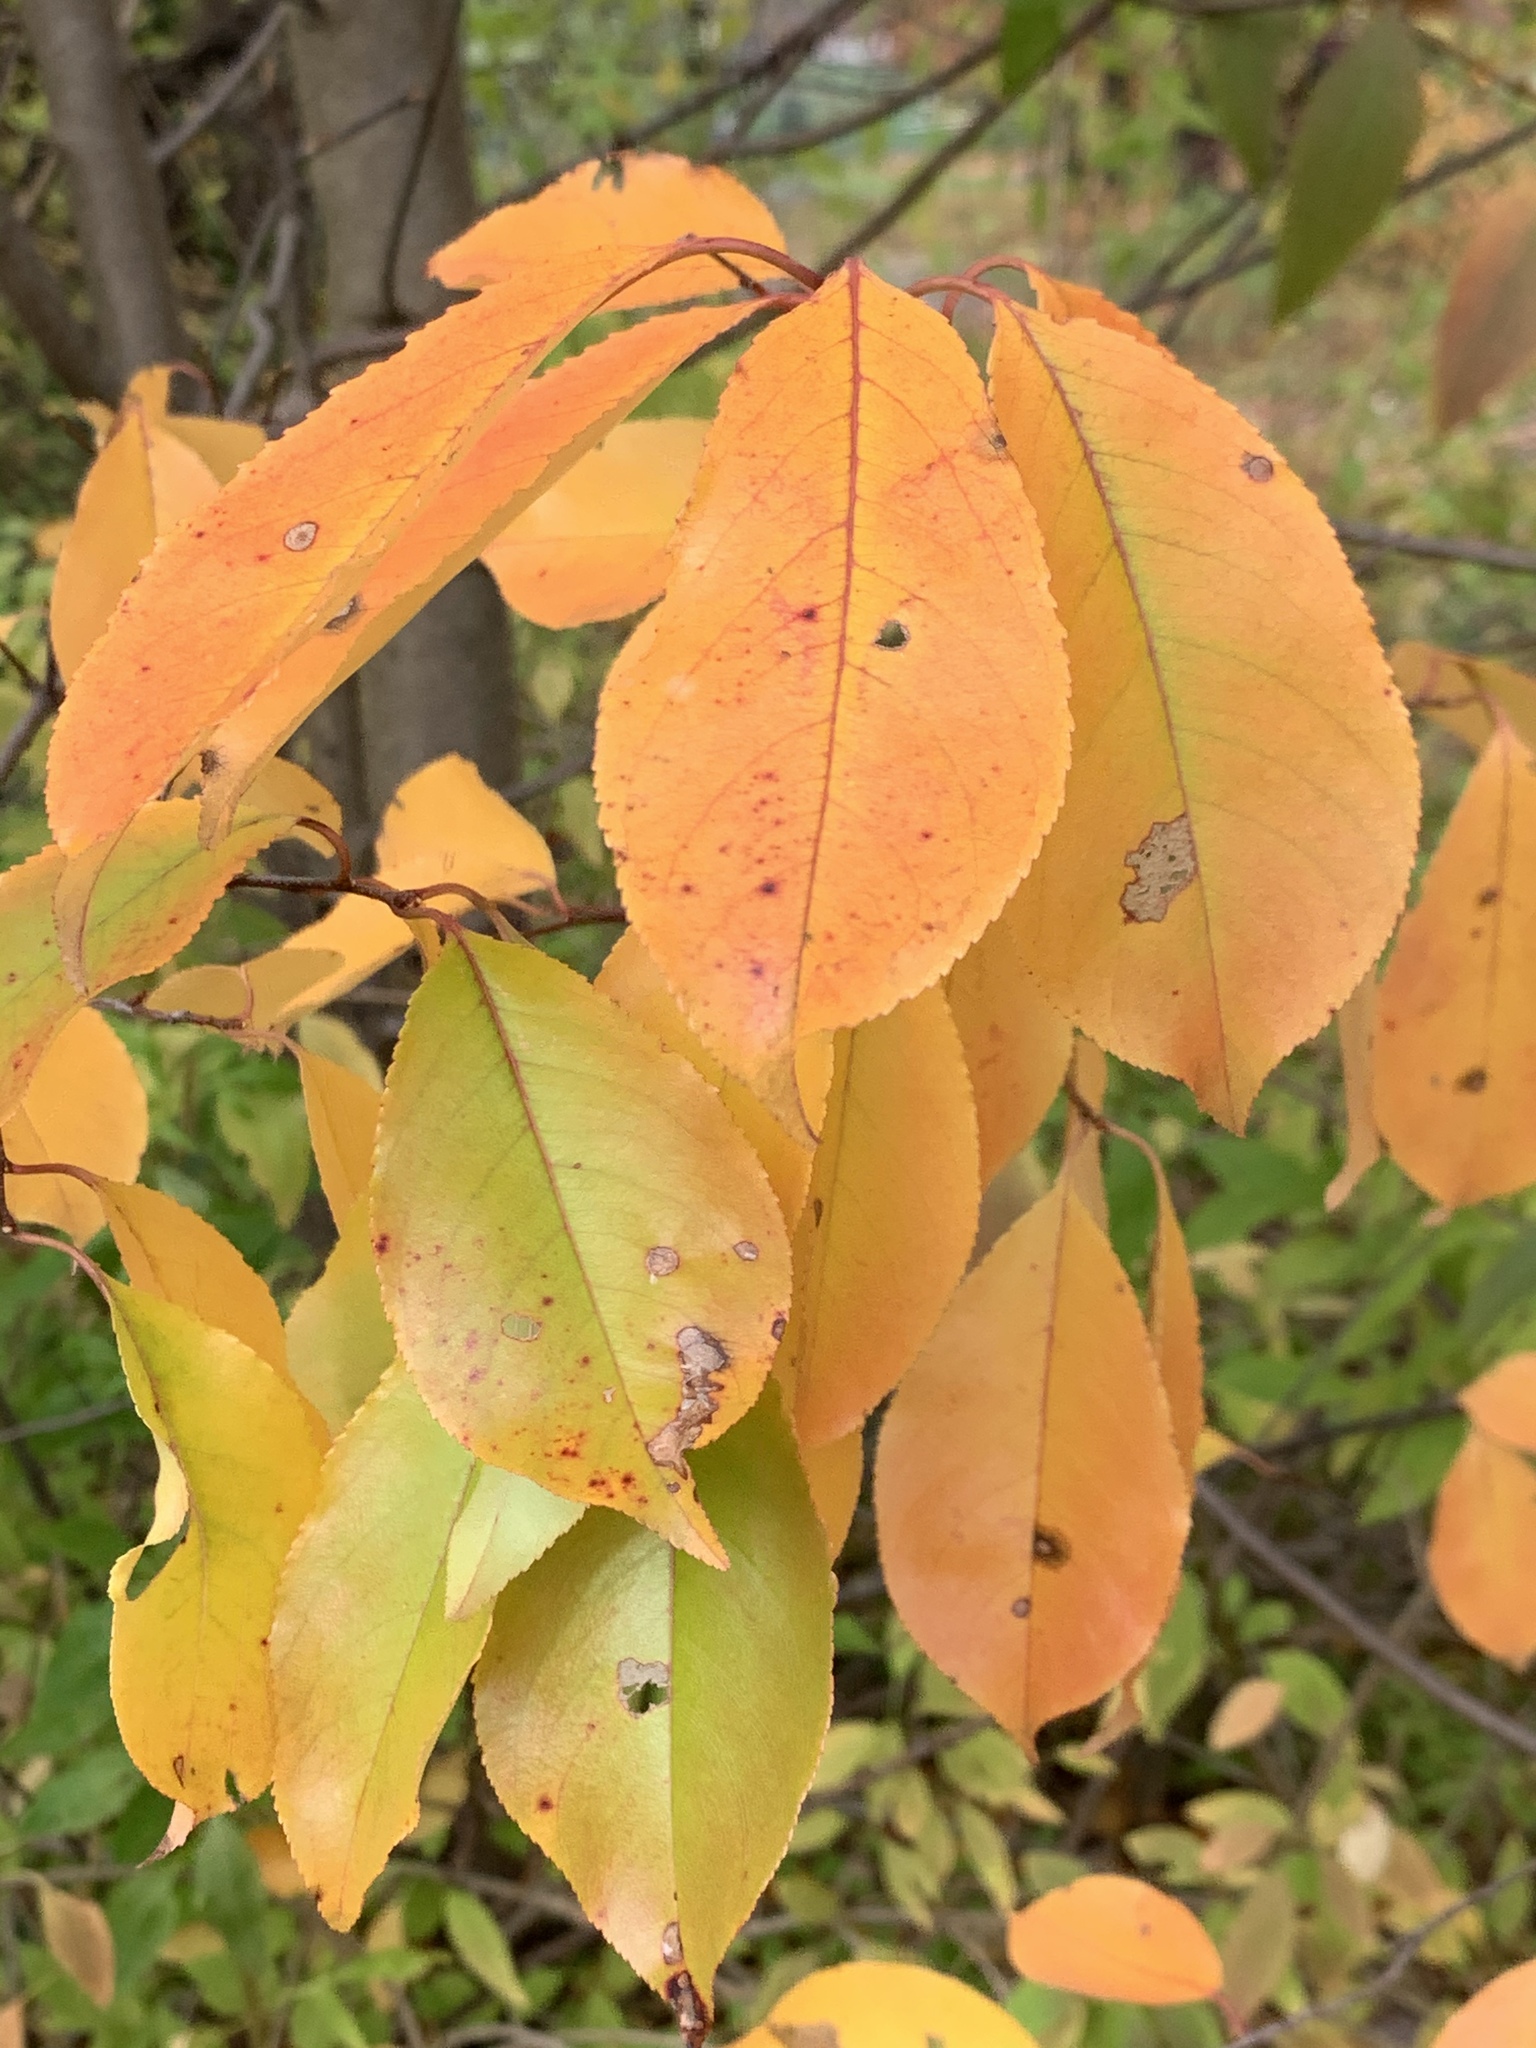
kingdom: Plantae
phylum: Tracheophyta
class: Magnoliopsida
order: Rosales
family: Rosaceae
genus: Prunus
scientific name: Prunus serotina
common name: Black cherry
